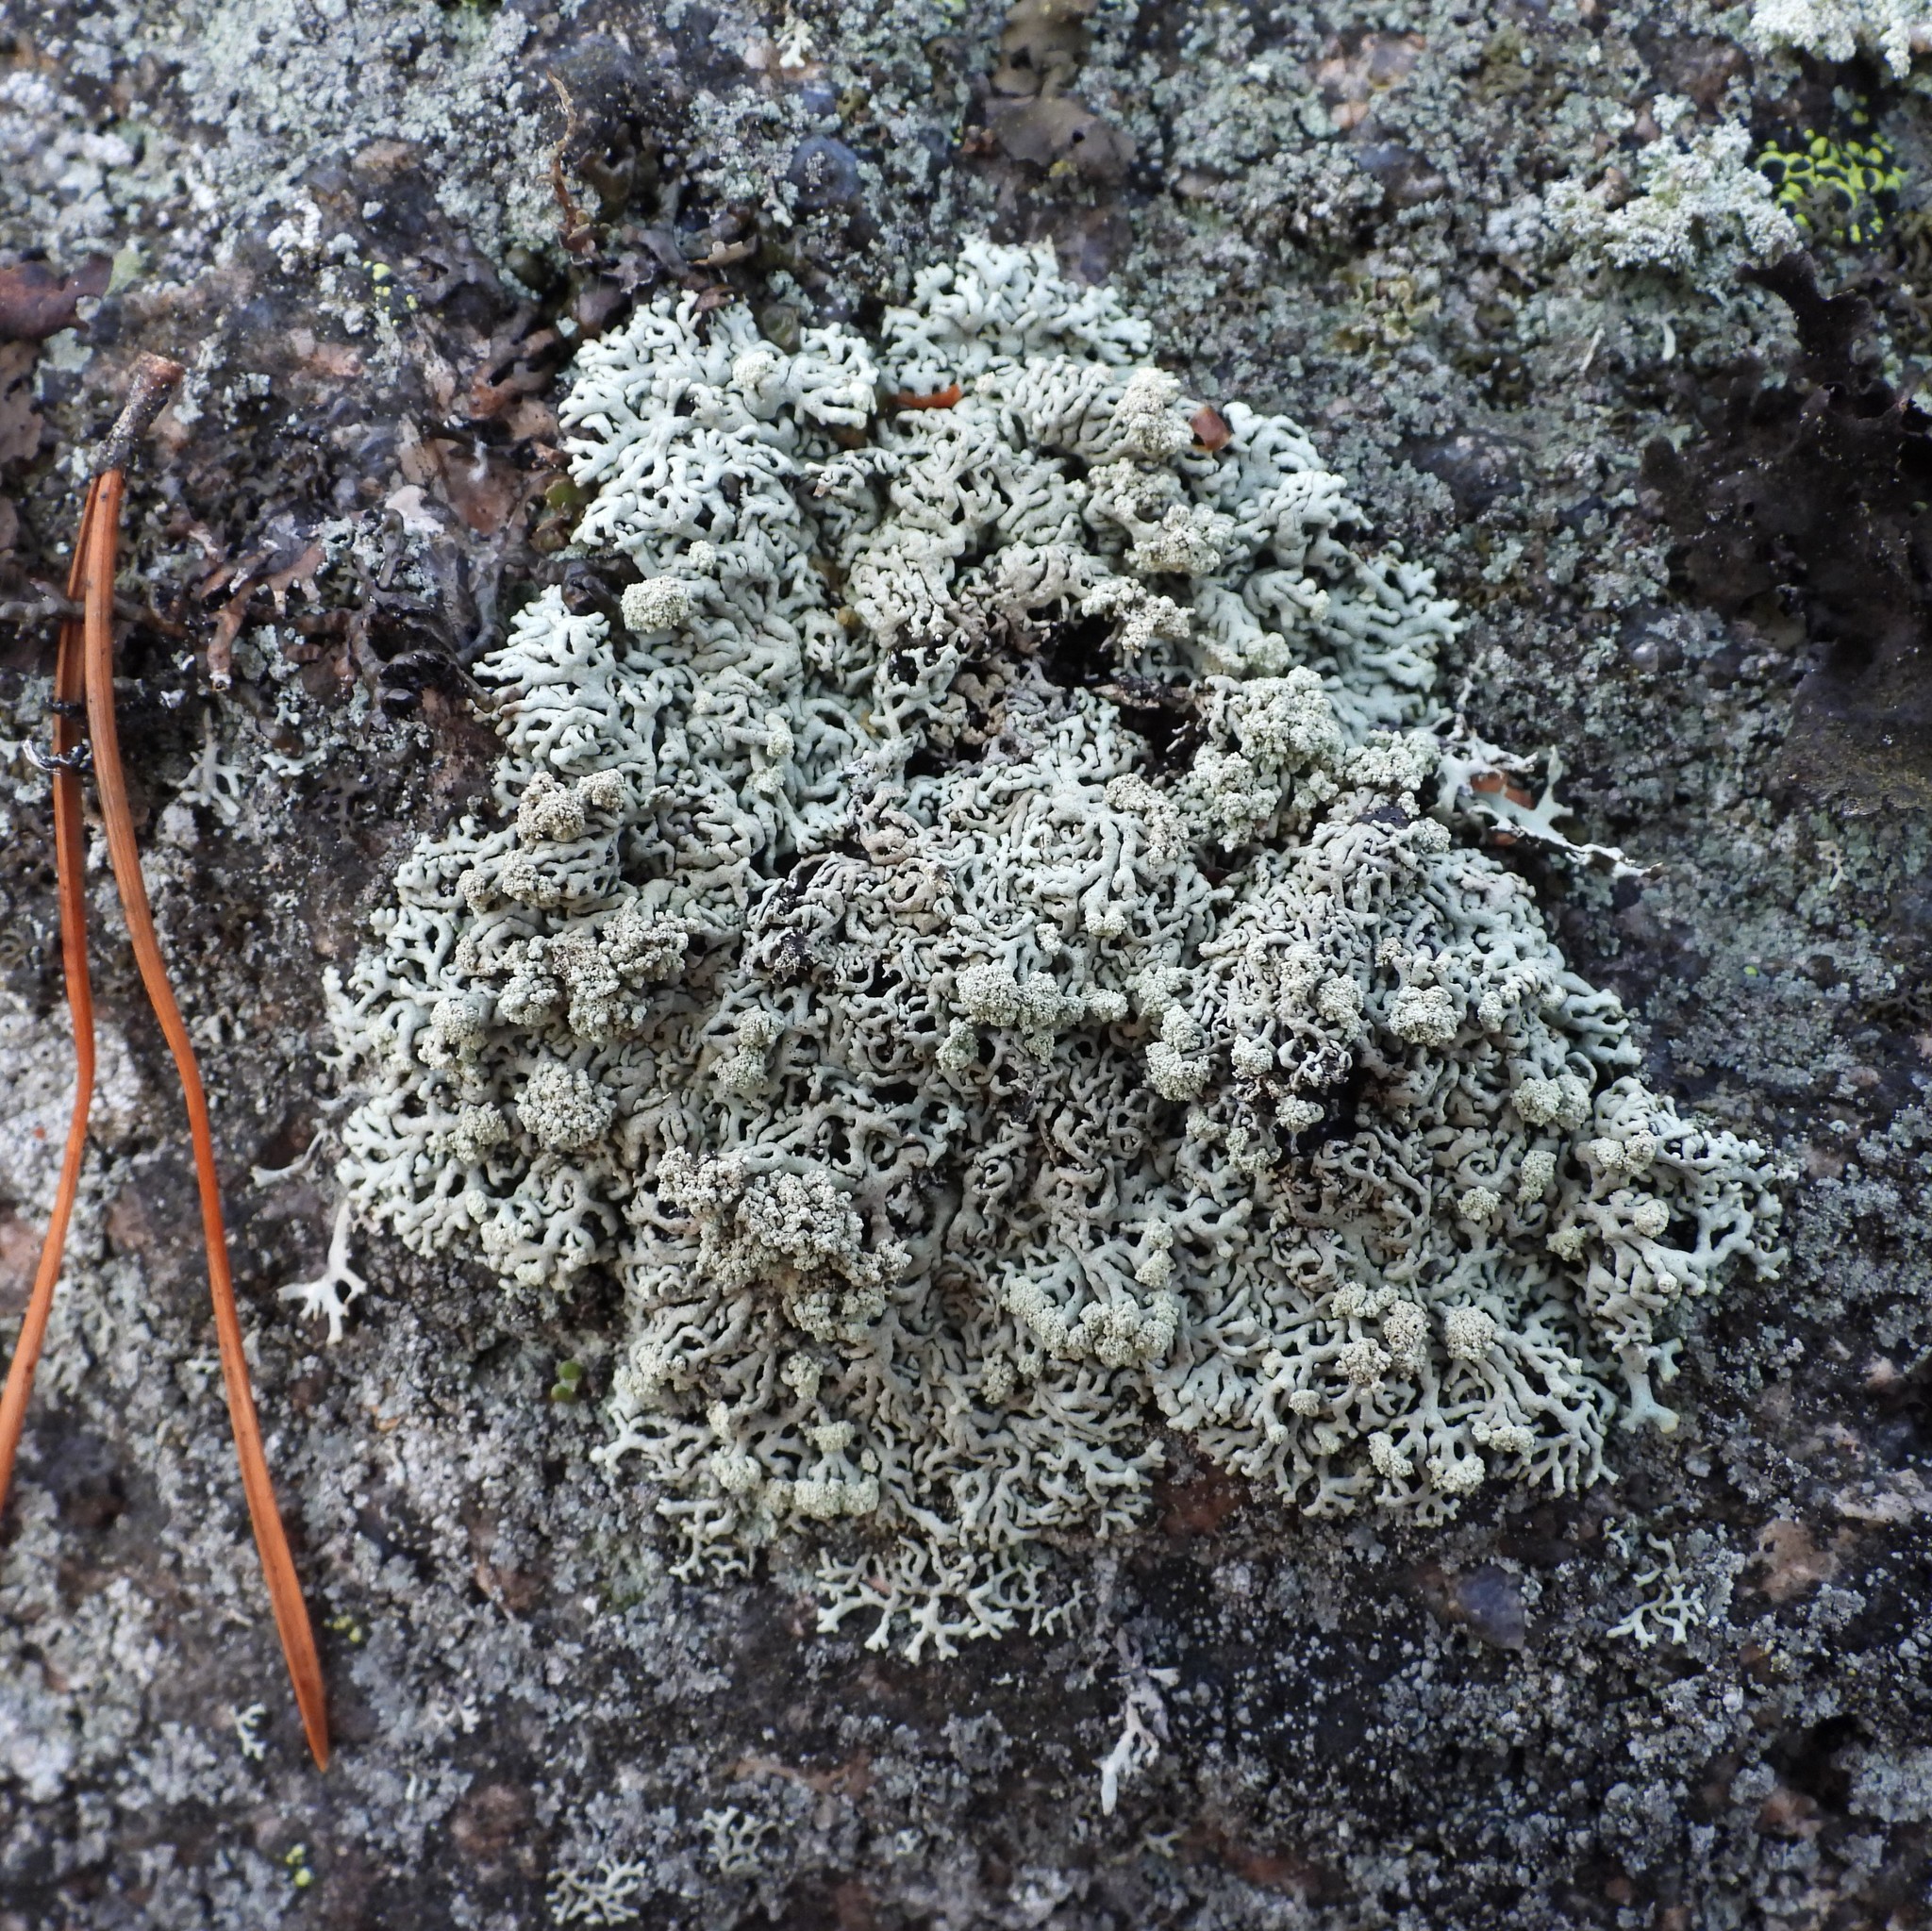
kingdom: Fungi
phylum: Ascomycota
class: Lecanoromycetes
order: Lecanorales
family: Parmeliaceae
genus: Arctoparmelia
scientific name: Arctoparmelia incurva
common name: Bent ring lichen
